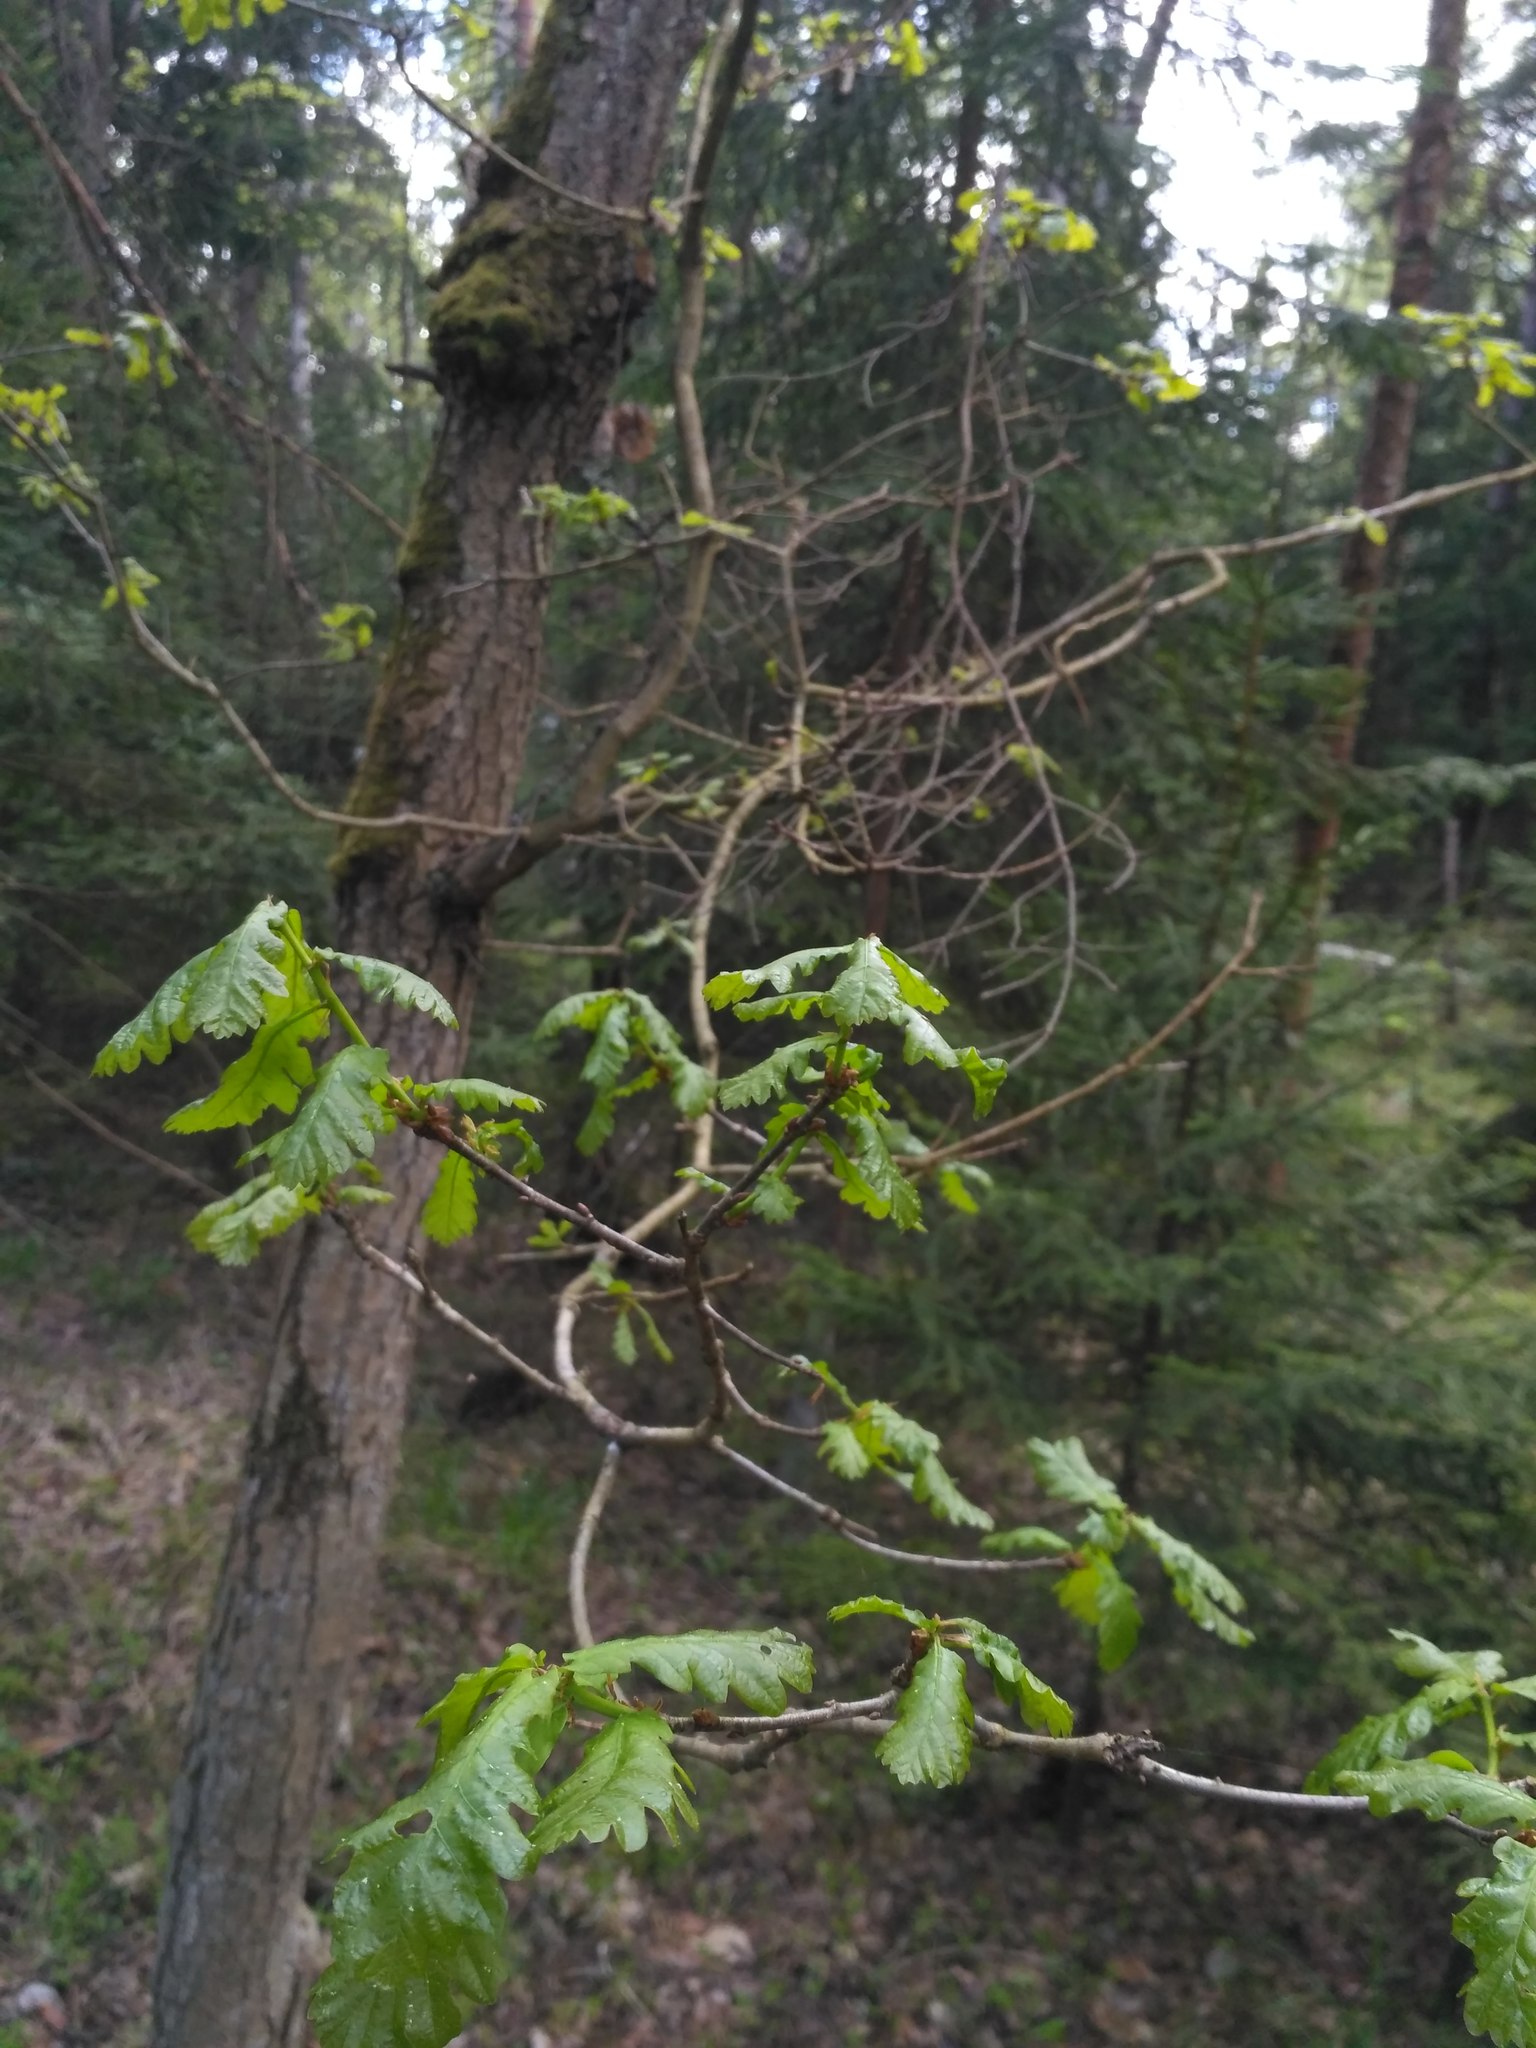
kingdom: Plantae
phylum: Tracheophyta
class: Magnoliopsida
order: Fagales
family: Fagaceae
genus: Quercus
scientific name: Quercus robur
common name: Pedunculate oak
